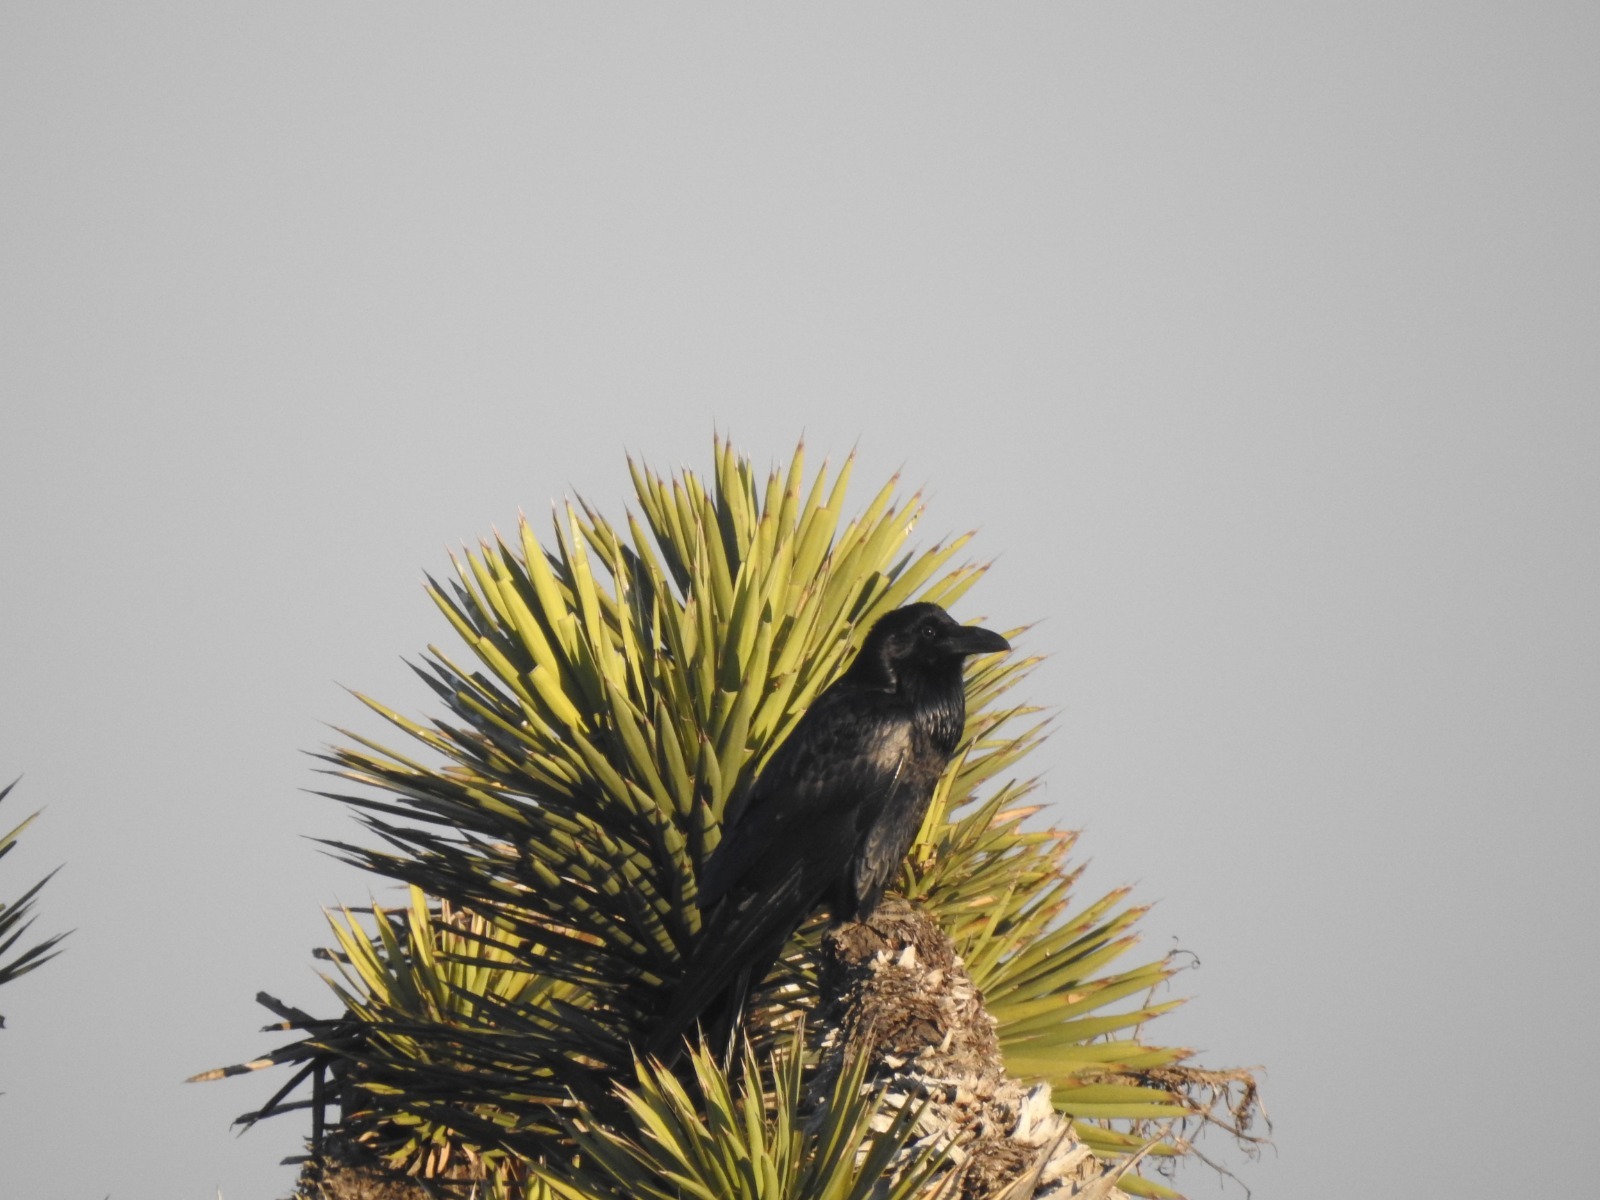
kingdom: Animalia
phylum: Chordata
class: Aves
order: Passeriformes
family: Corvidae
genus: Corvus
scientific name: Corvus corax
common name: Common raven
